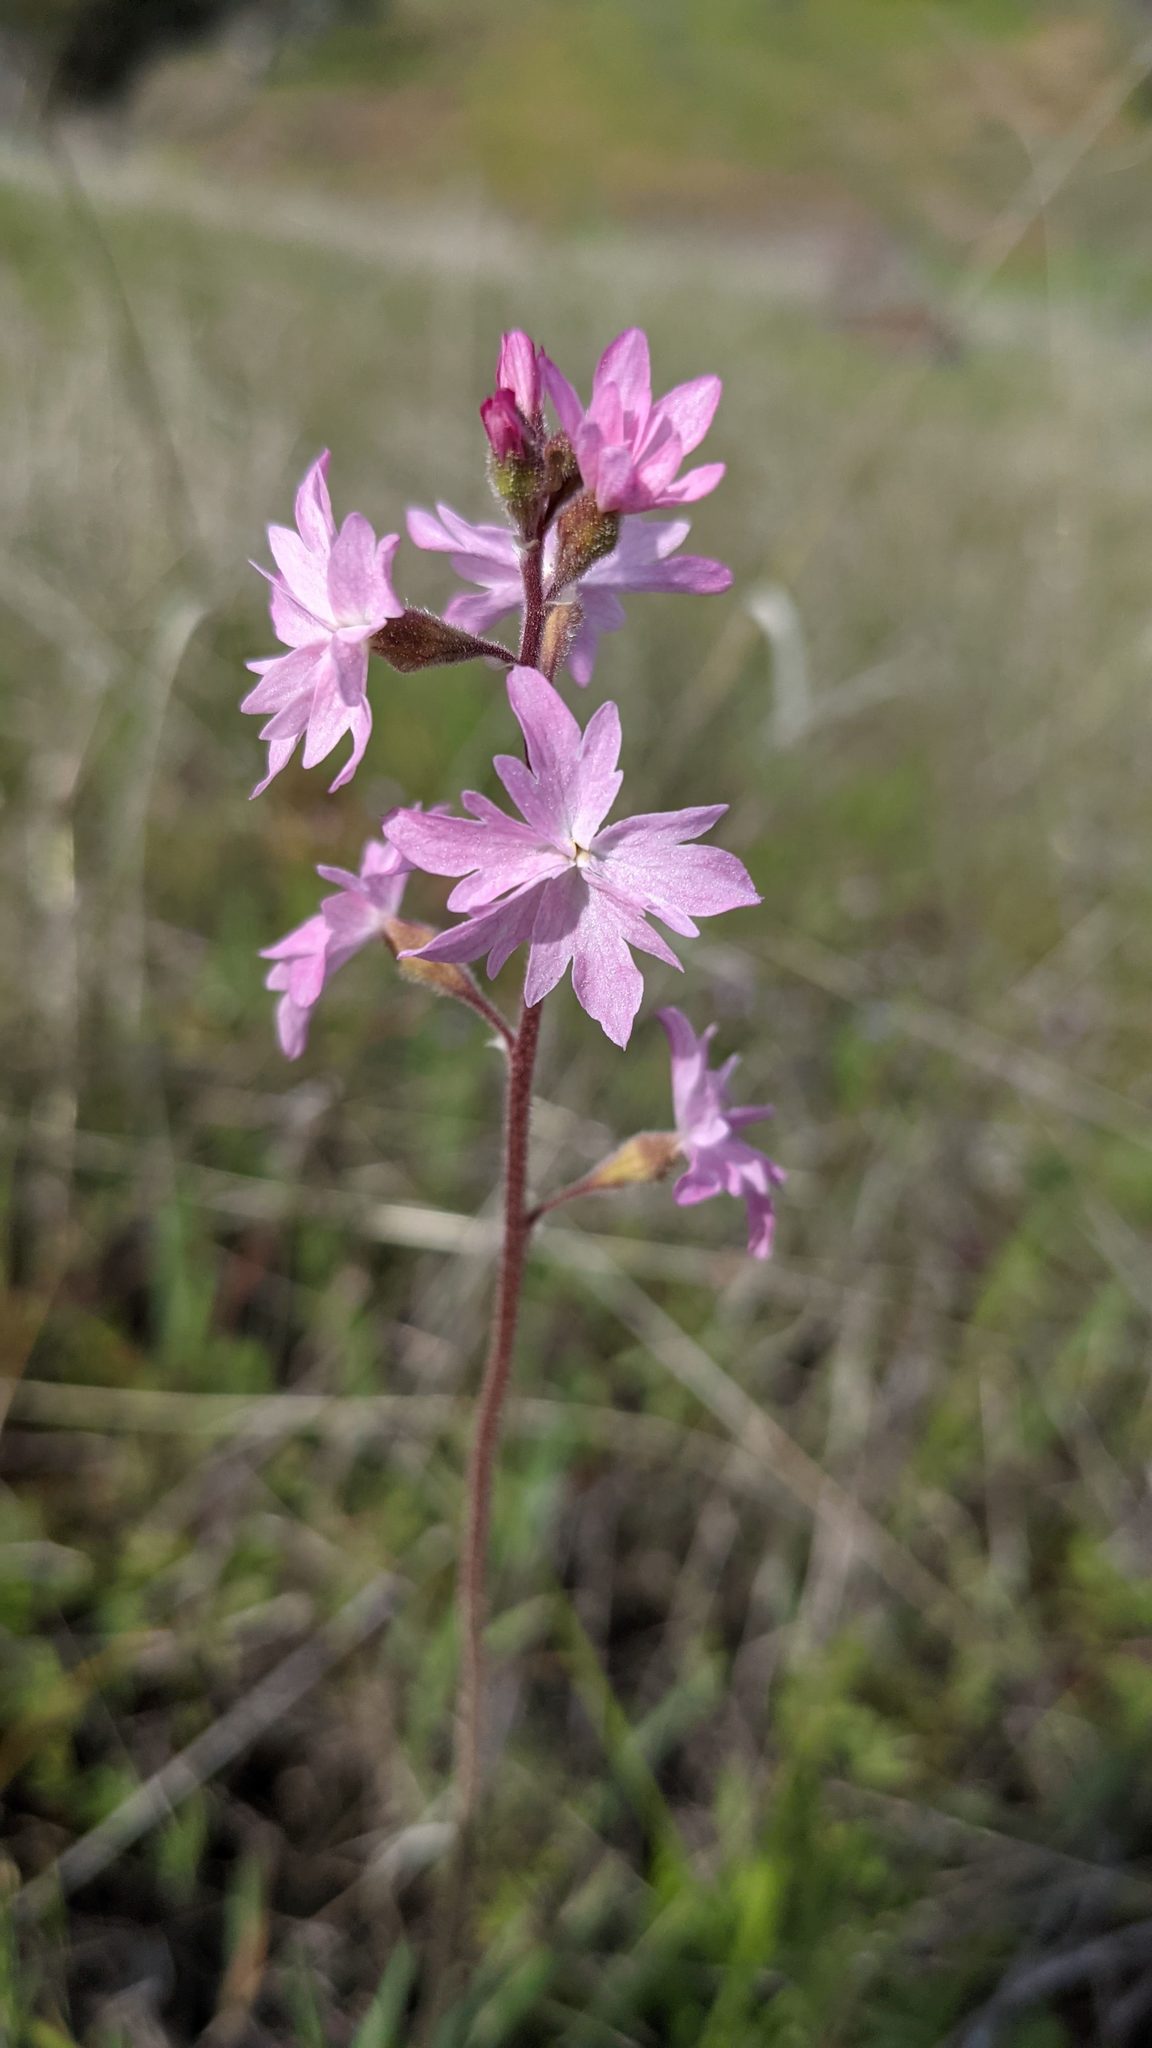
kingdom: Plantae
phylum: Tracheophyta
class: Magnoliopsida
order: Saxifragales
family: Saxifragaceae
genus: Lithophragma
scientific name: Lithophragma trifoliatum
